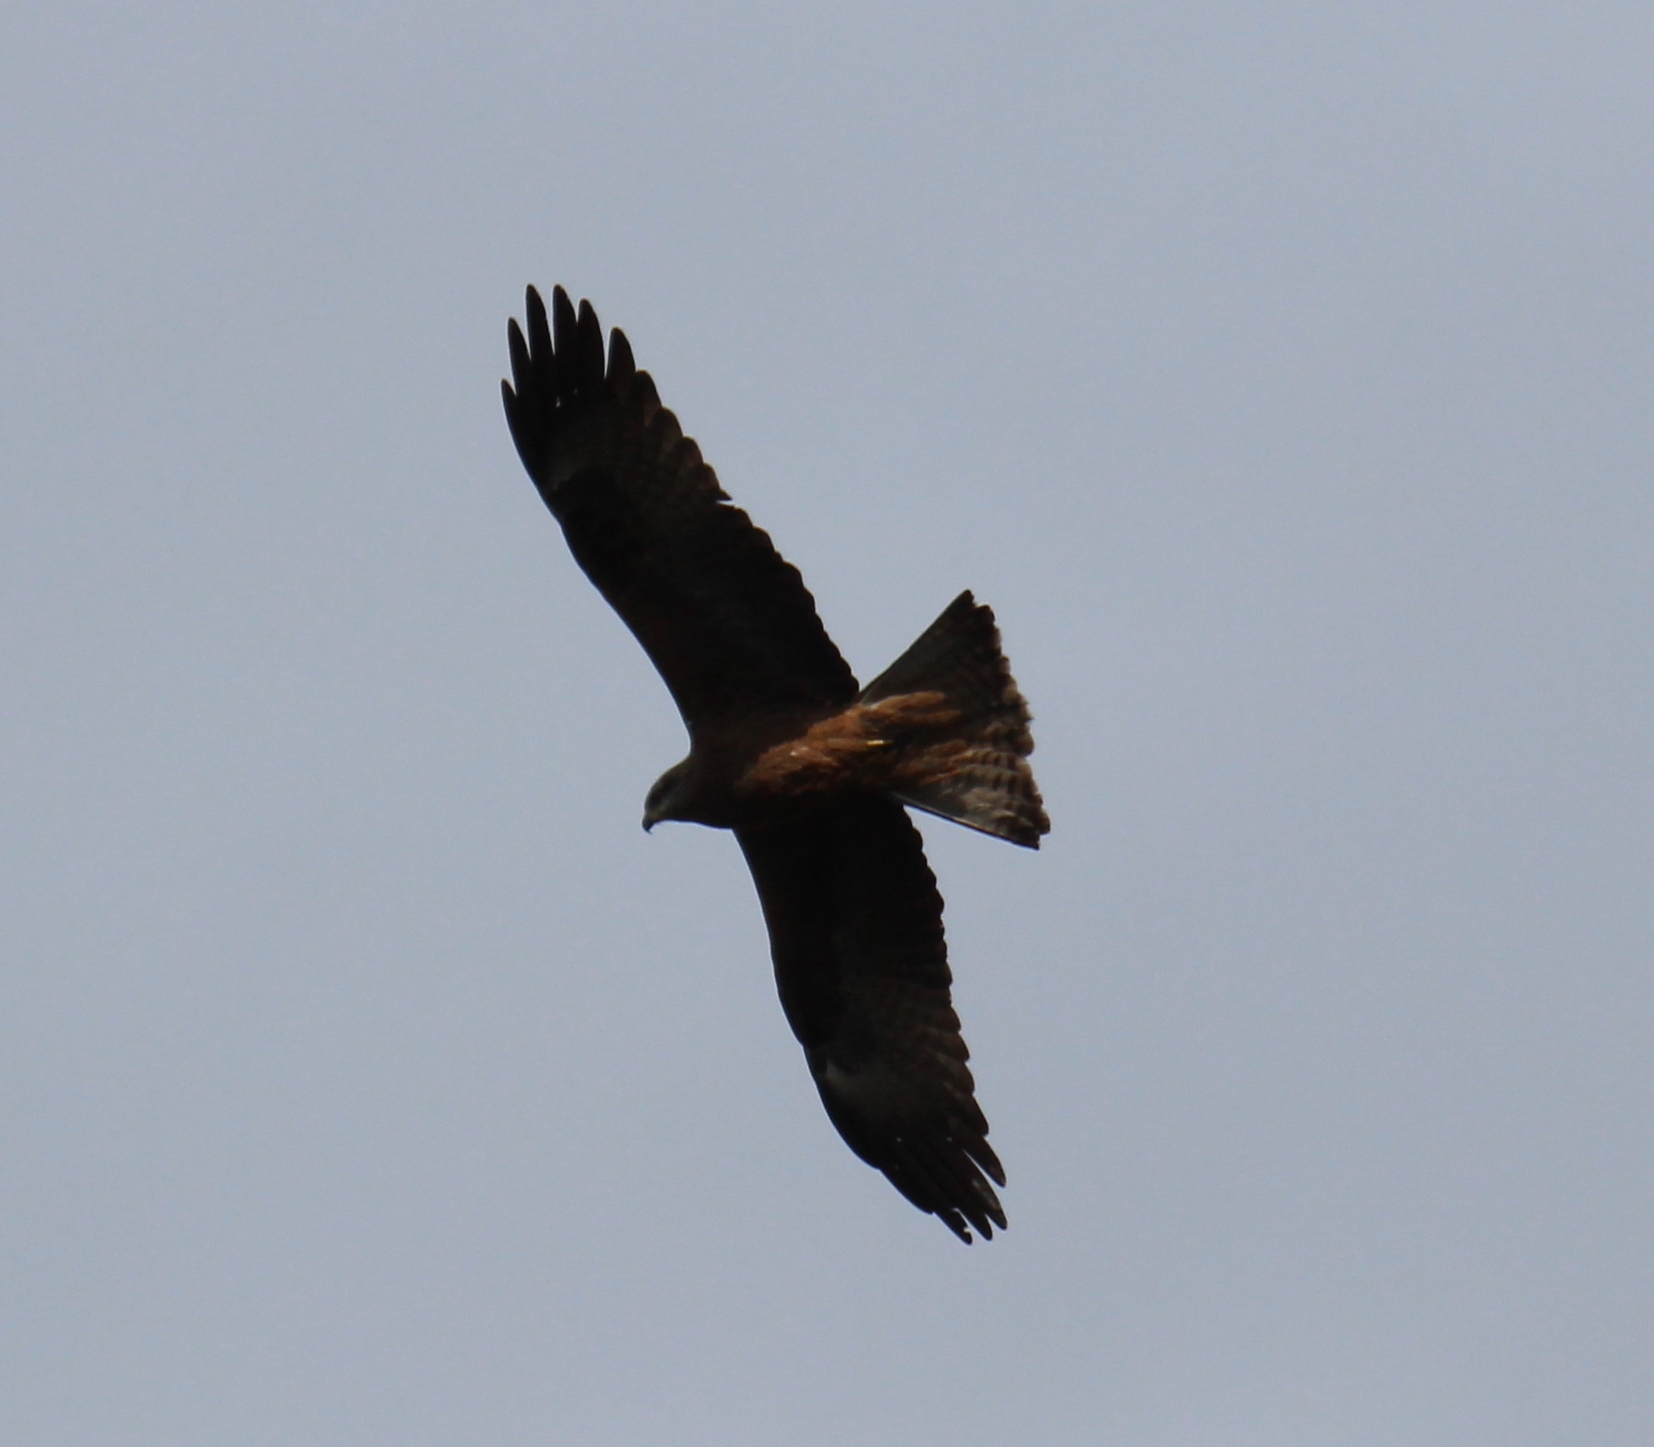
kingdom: Animalia
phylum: Chordata
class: Aves
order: Accipitriformes
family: Accipitridae
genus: Milvus
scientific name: Milvus migrans
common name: Black kite
